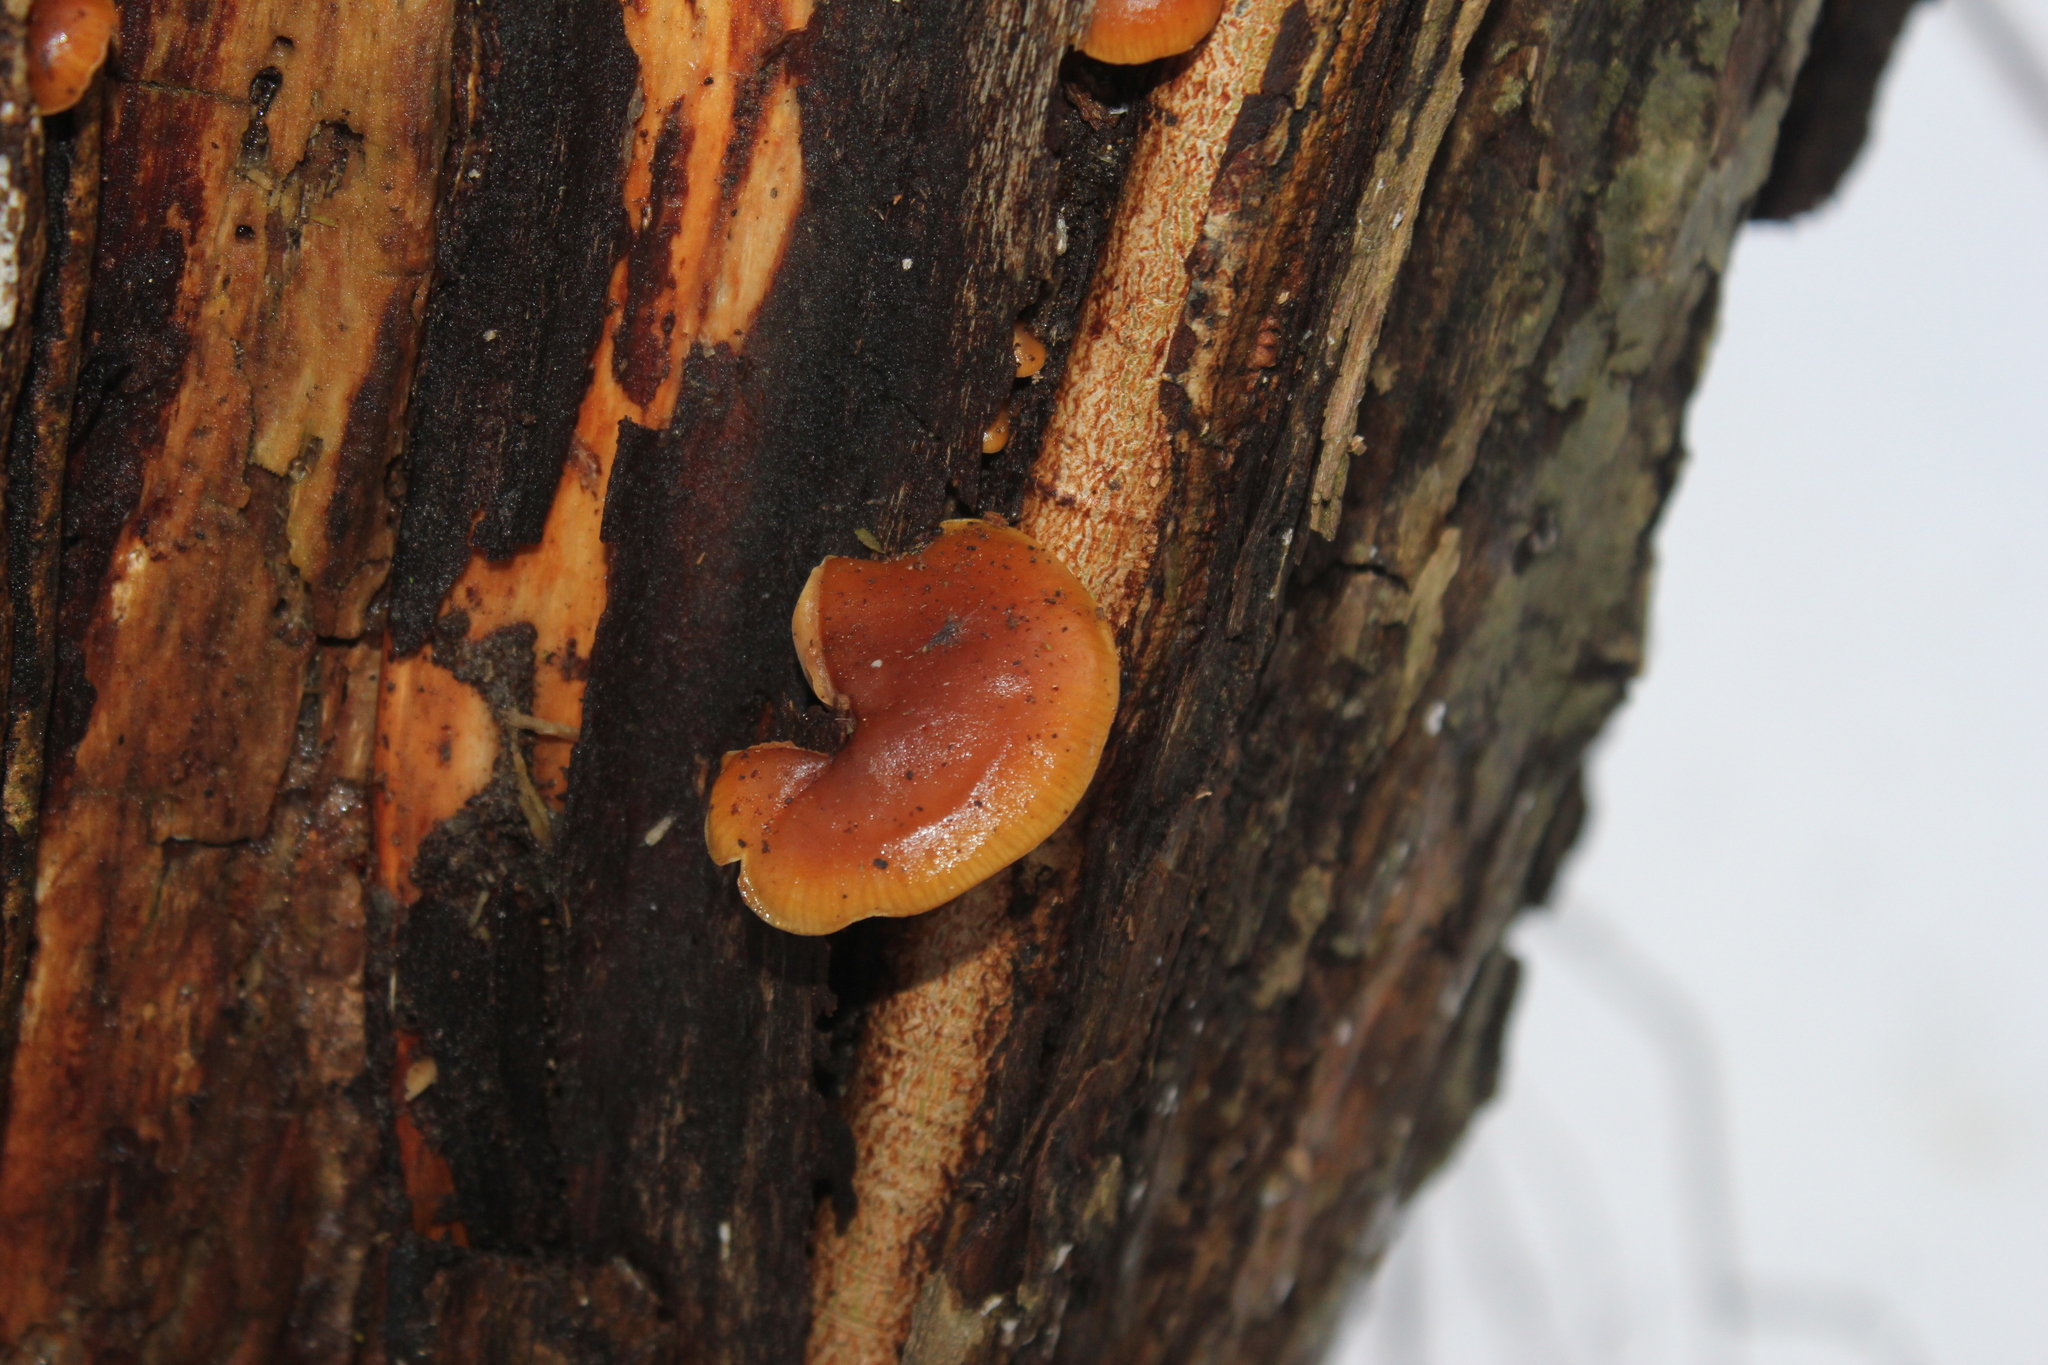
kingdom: Fungi
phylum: Basidiomycota
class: Agaricomycetes
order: Agaricales
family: Physalacriaceae
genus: Flammulina
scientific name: Flammulina velutipes
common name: Velvet shank
